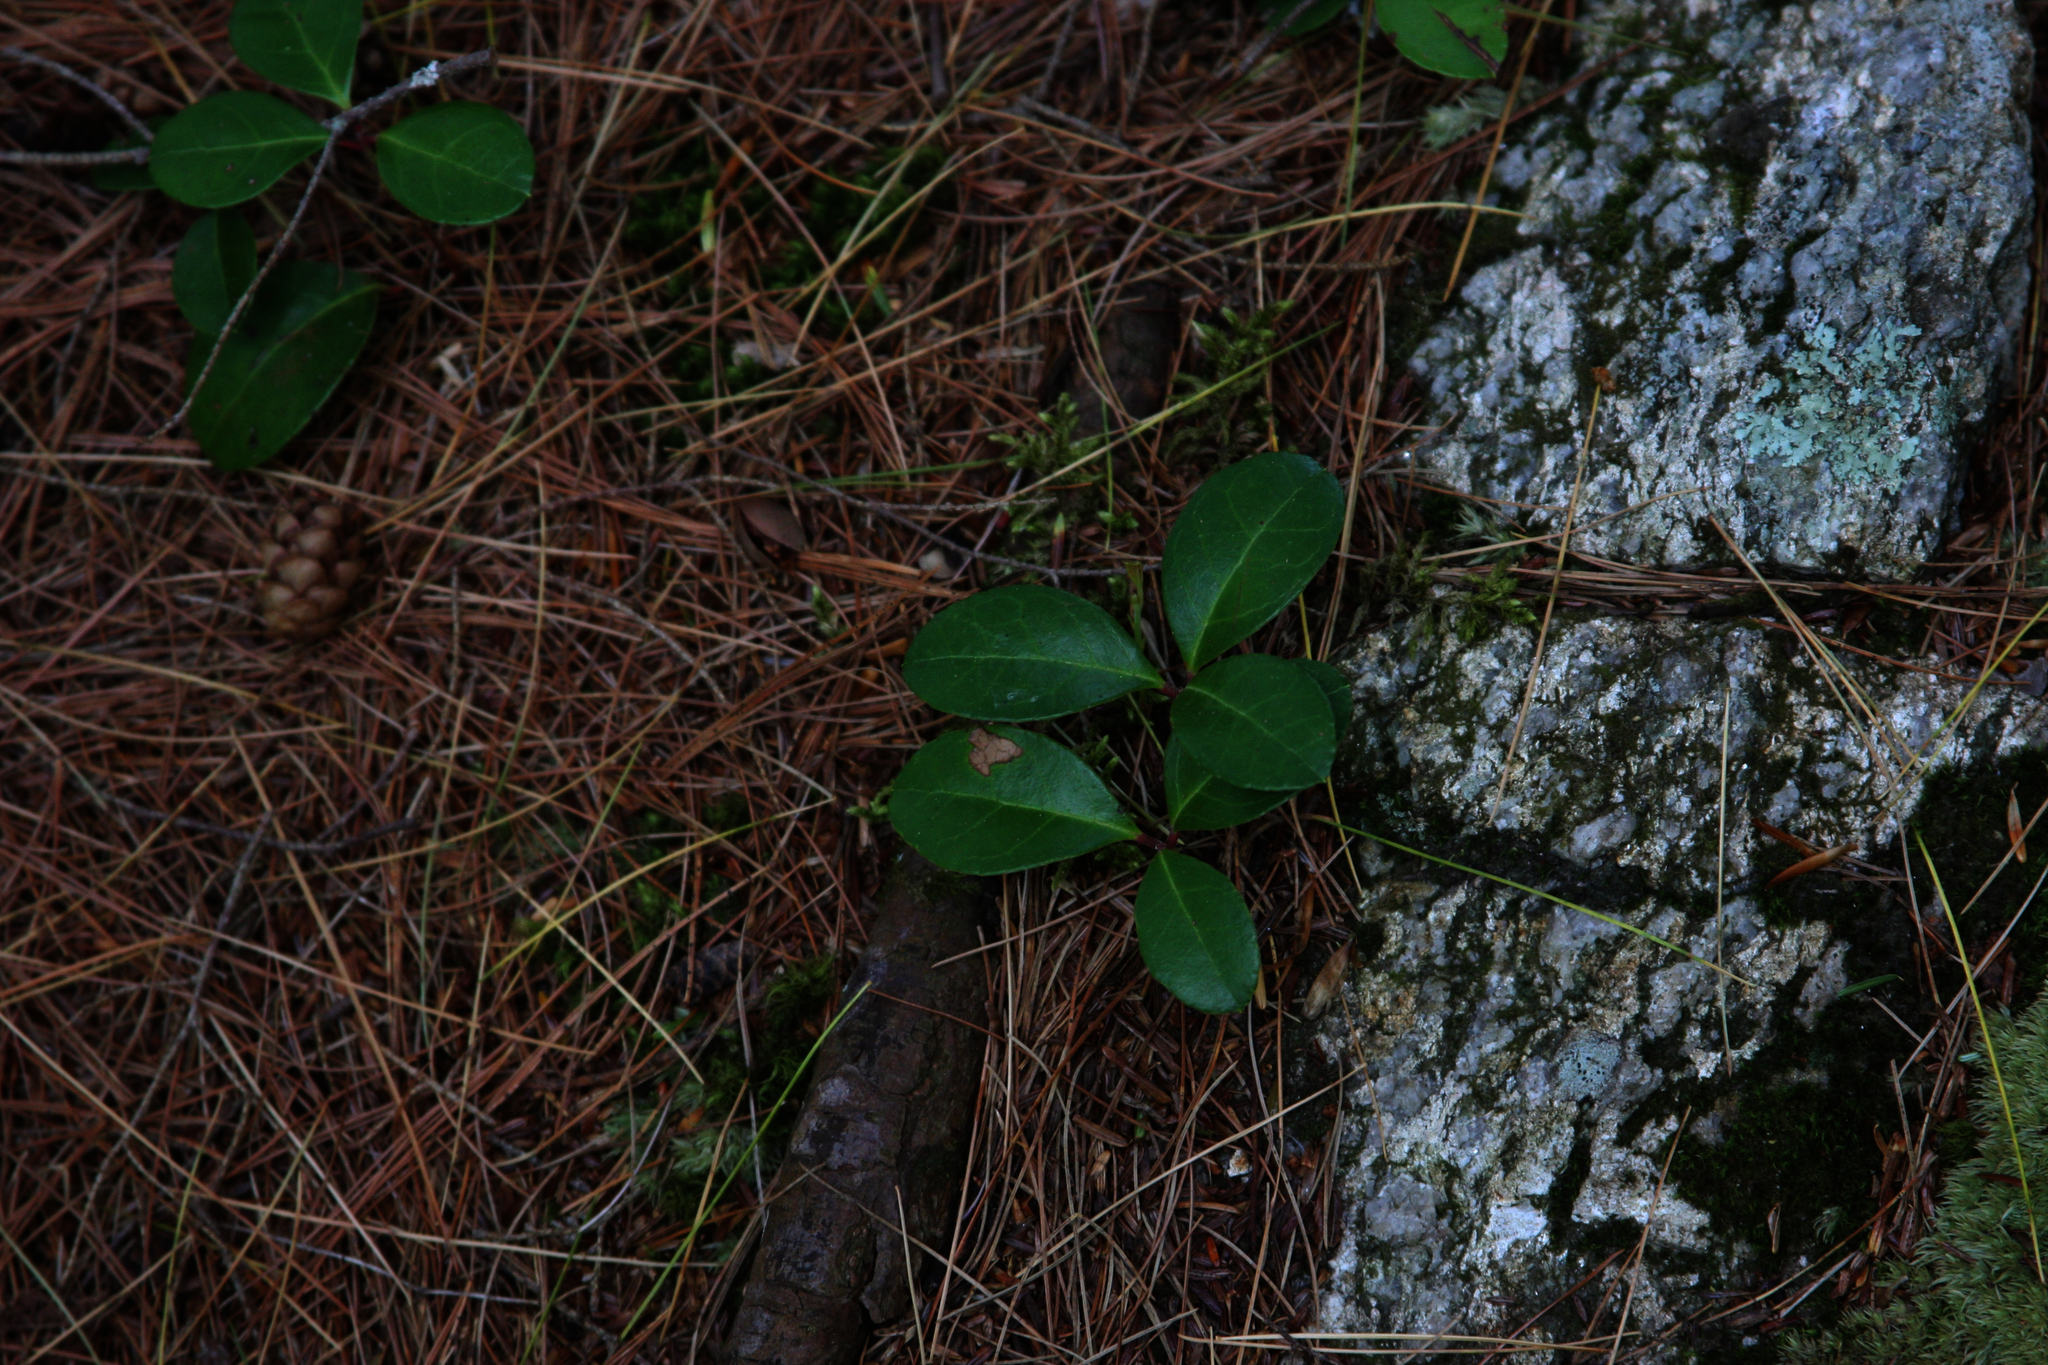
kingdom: Plantae
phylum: Tracheophyta
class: Magnoliopsida
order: Ericales
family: Ericaceae
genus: Gaultheria
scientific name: Gaultheria procumbens
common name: Checkerberry
